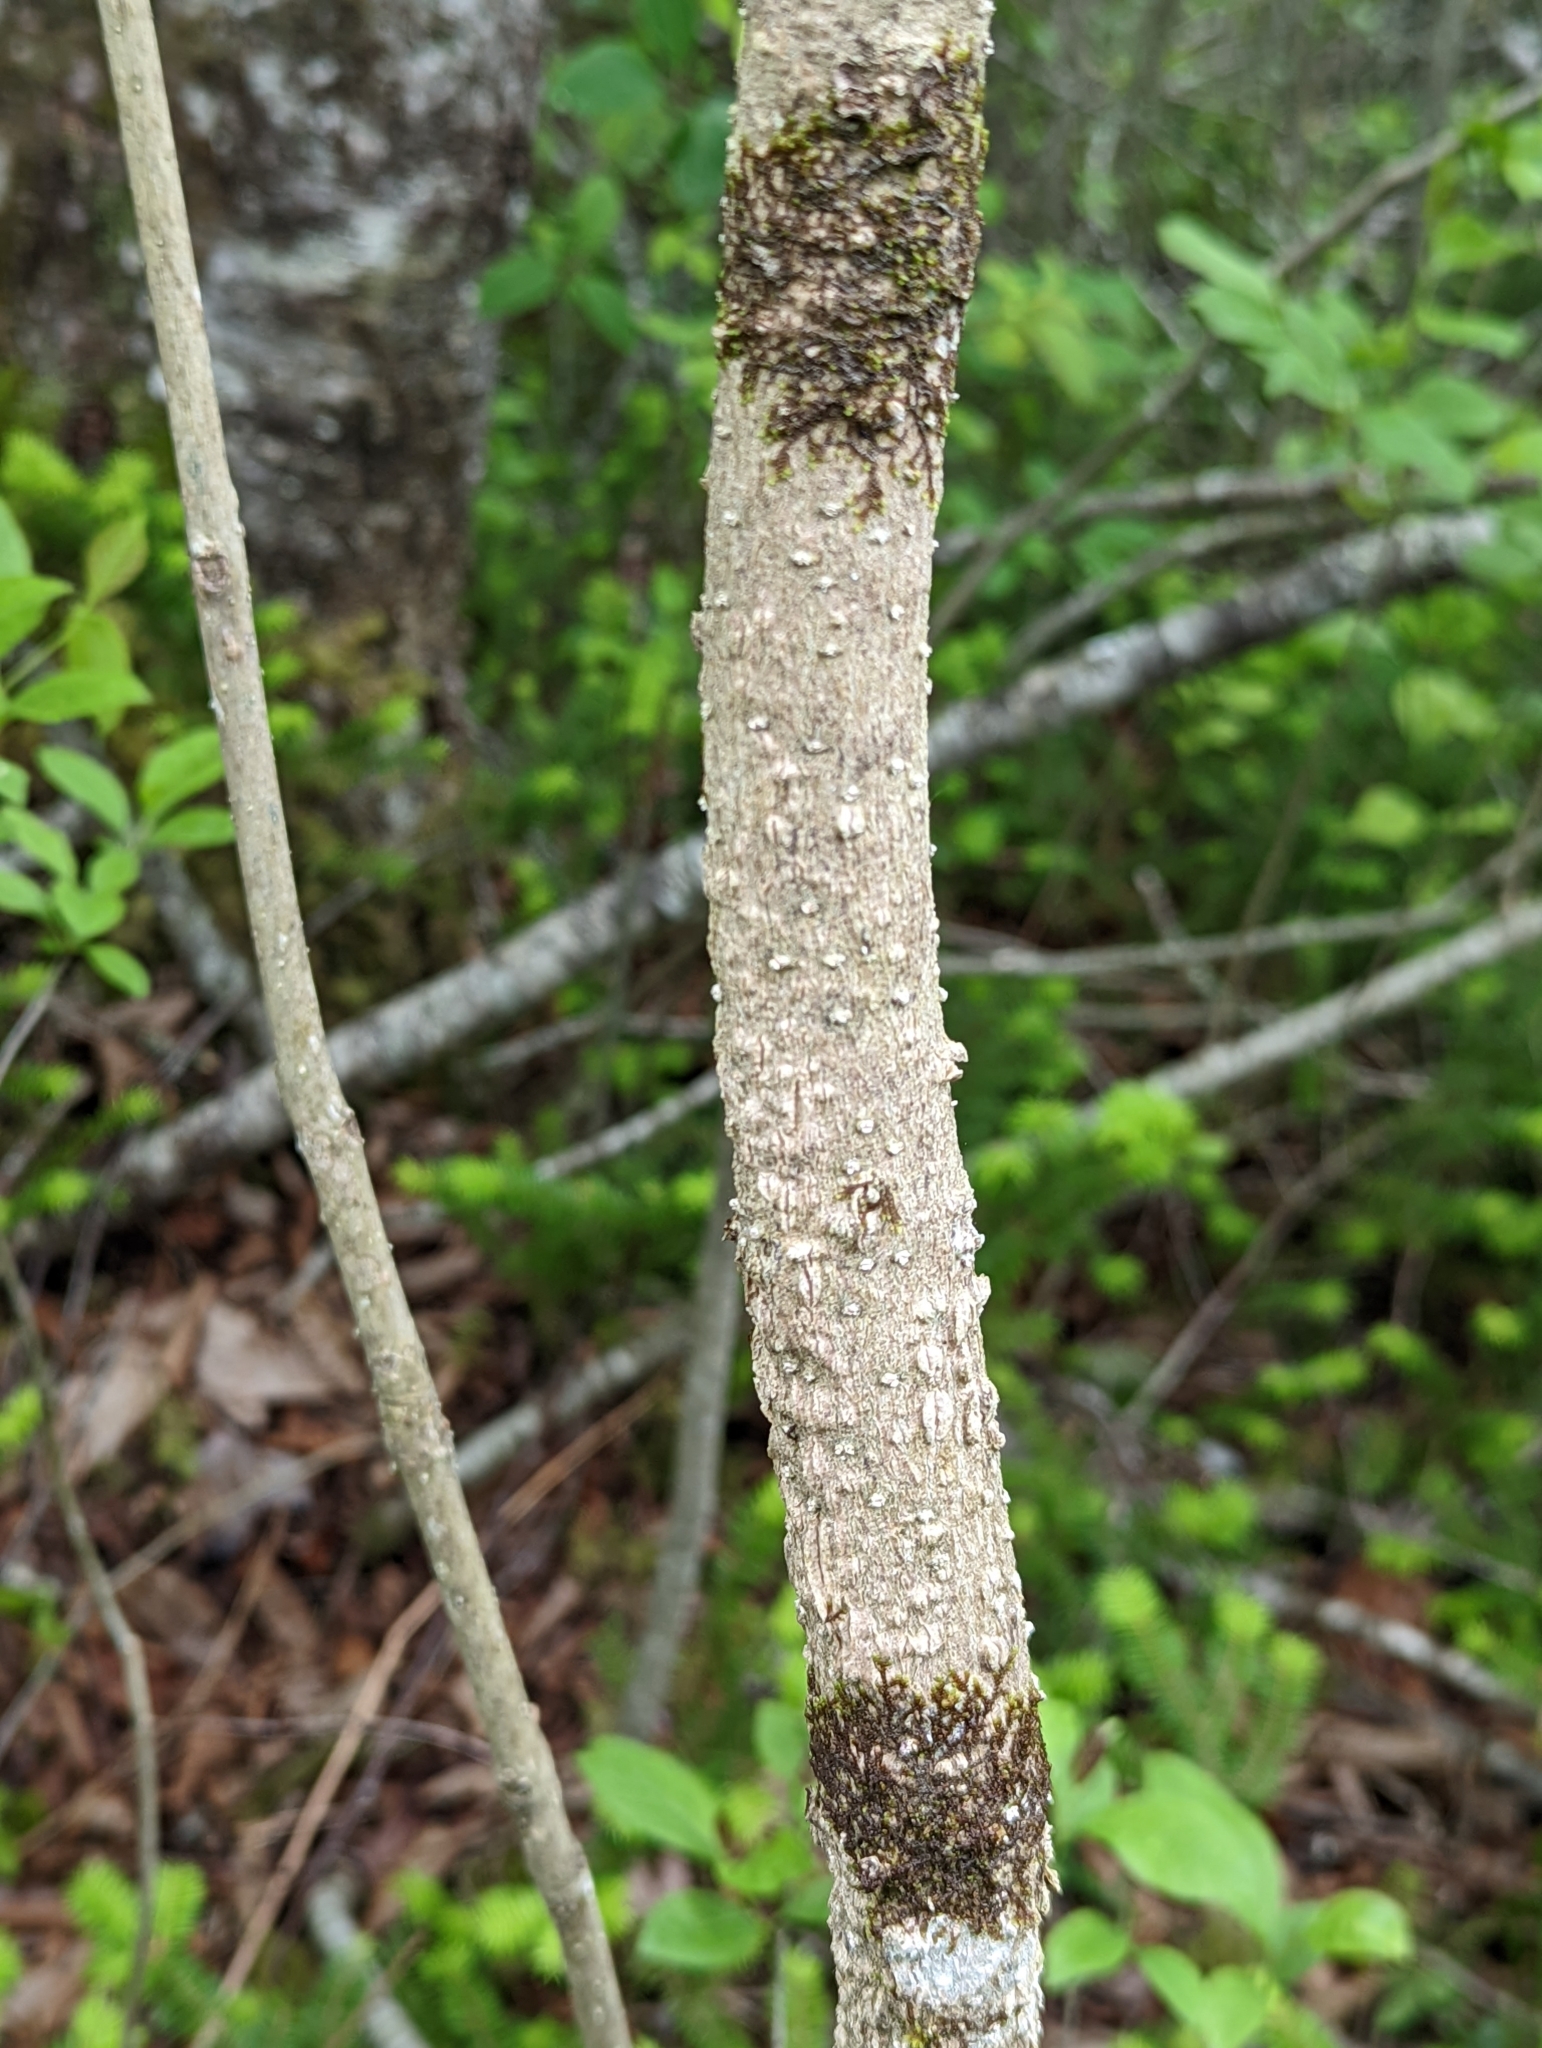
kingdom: Plantae
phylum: Tracheophyta
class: Magnoliopsida
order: Lamiales
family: Oleaceae
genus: Fraxinus
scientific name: Fraxinus nigra
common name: Black ash
